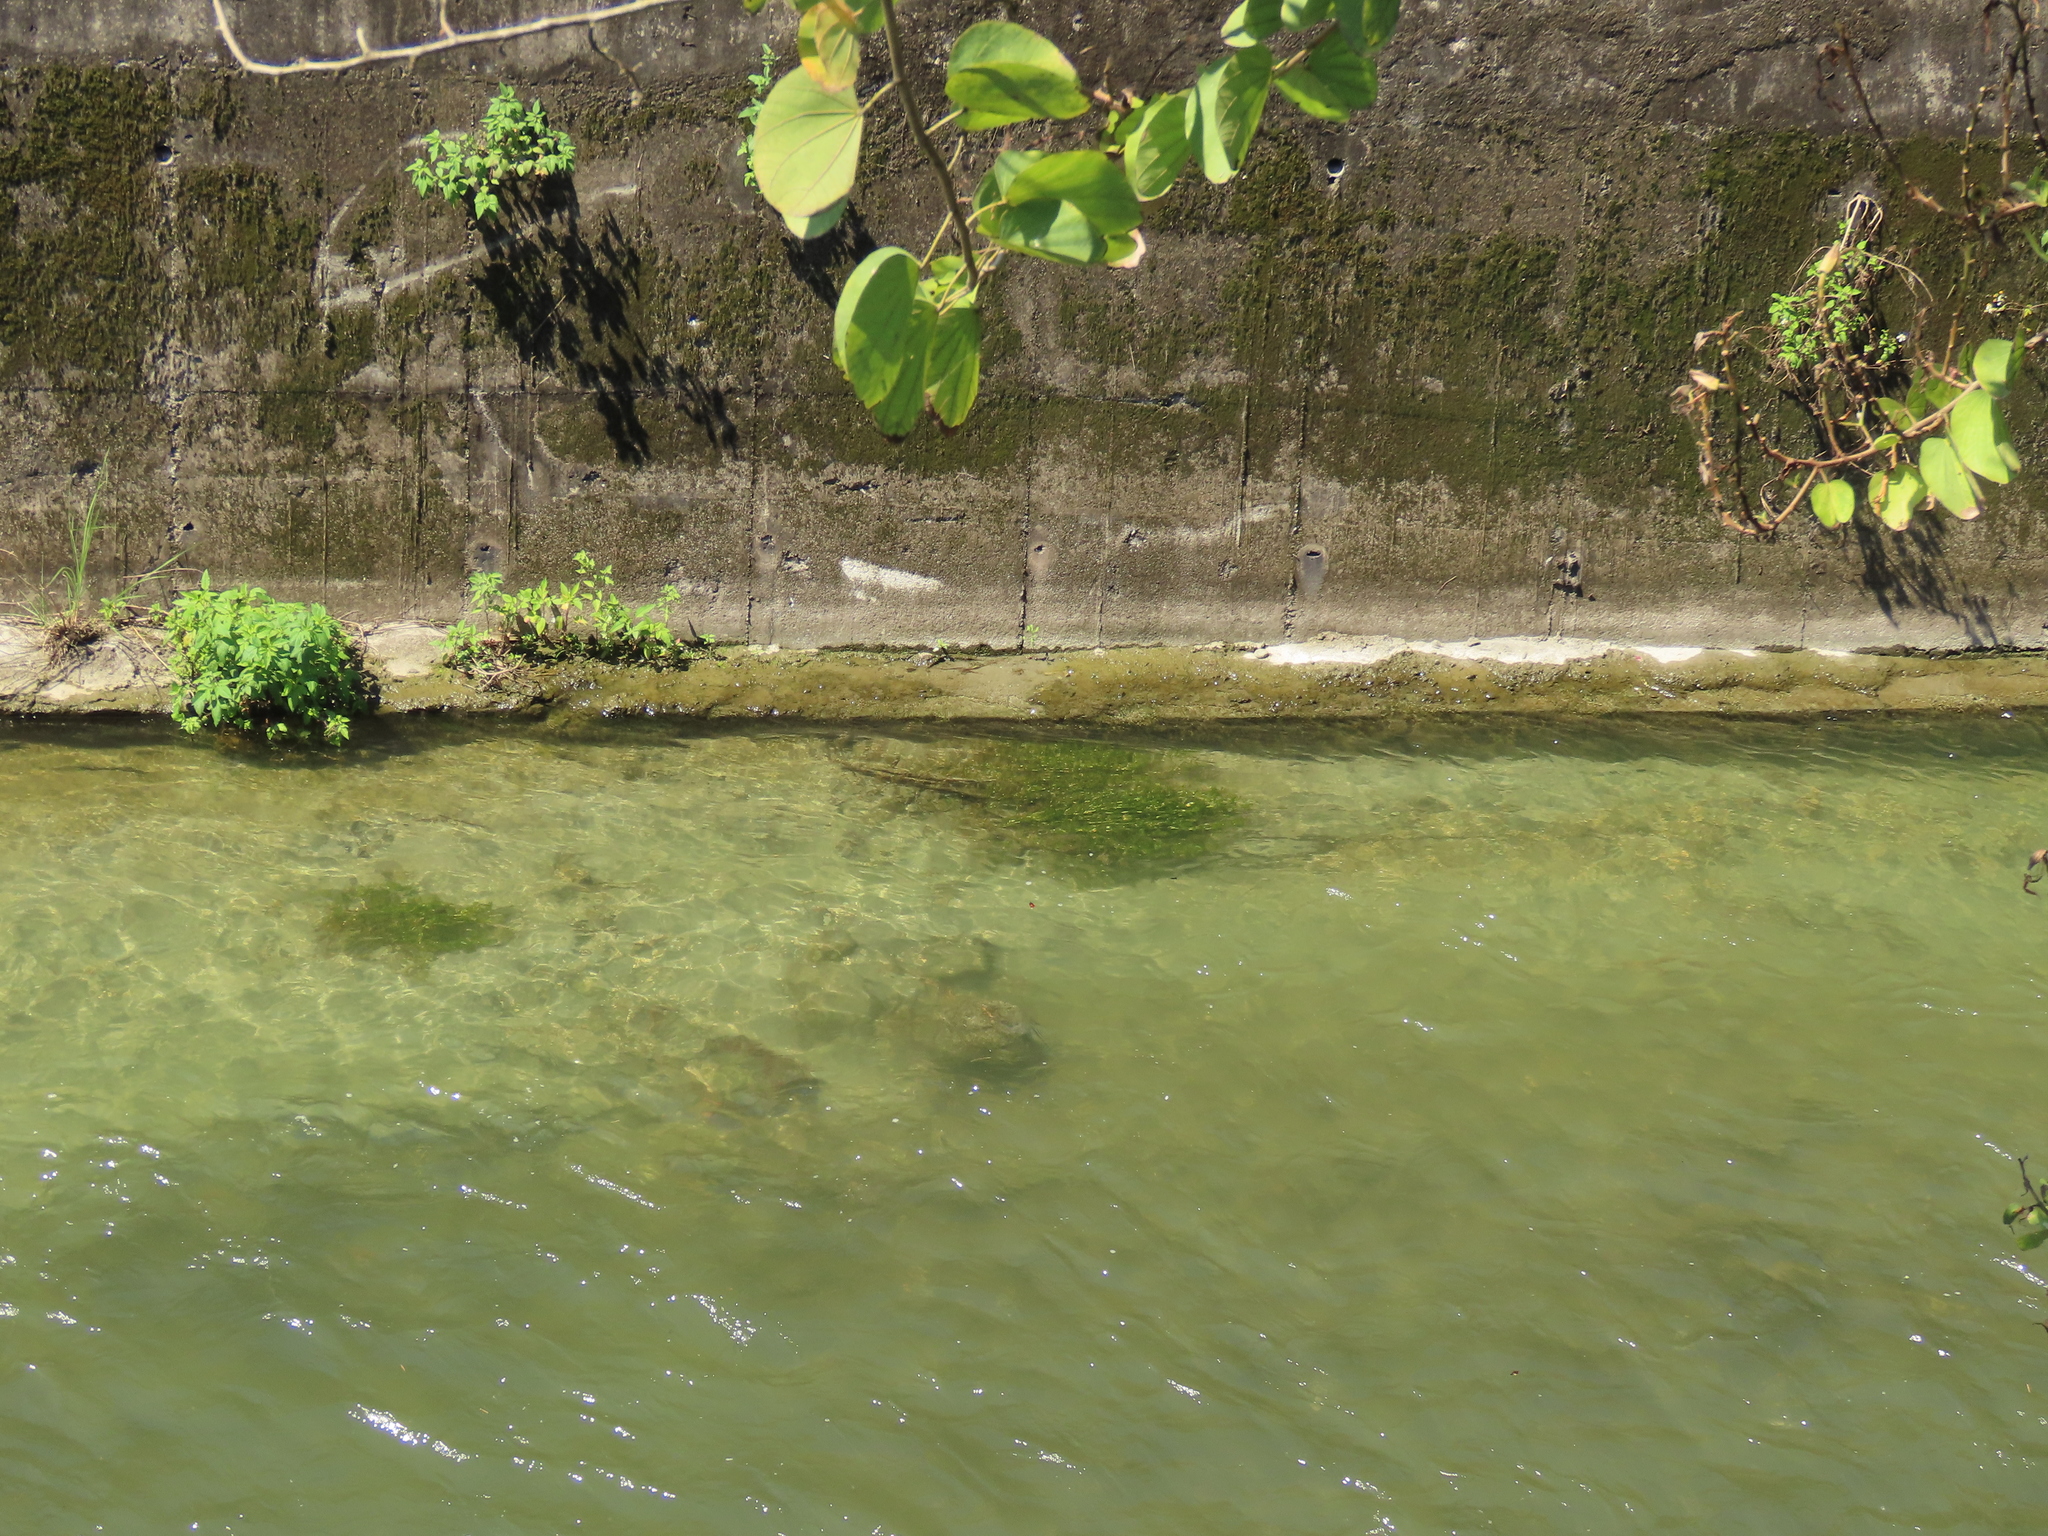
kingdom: Plantae
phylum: Tracheophyta
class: Liliopsida
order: Alismatales
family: Potamogetonaceae
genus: Potamogeton
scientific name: Potamogeton crispus
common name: Curled pondweed
